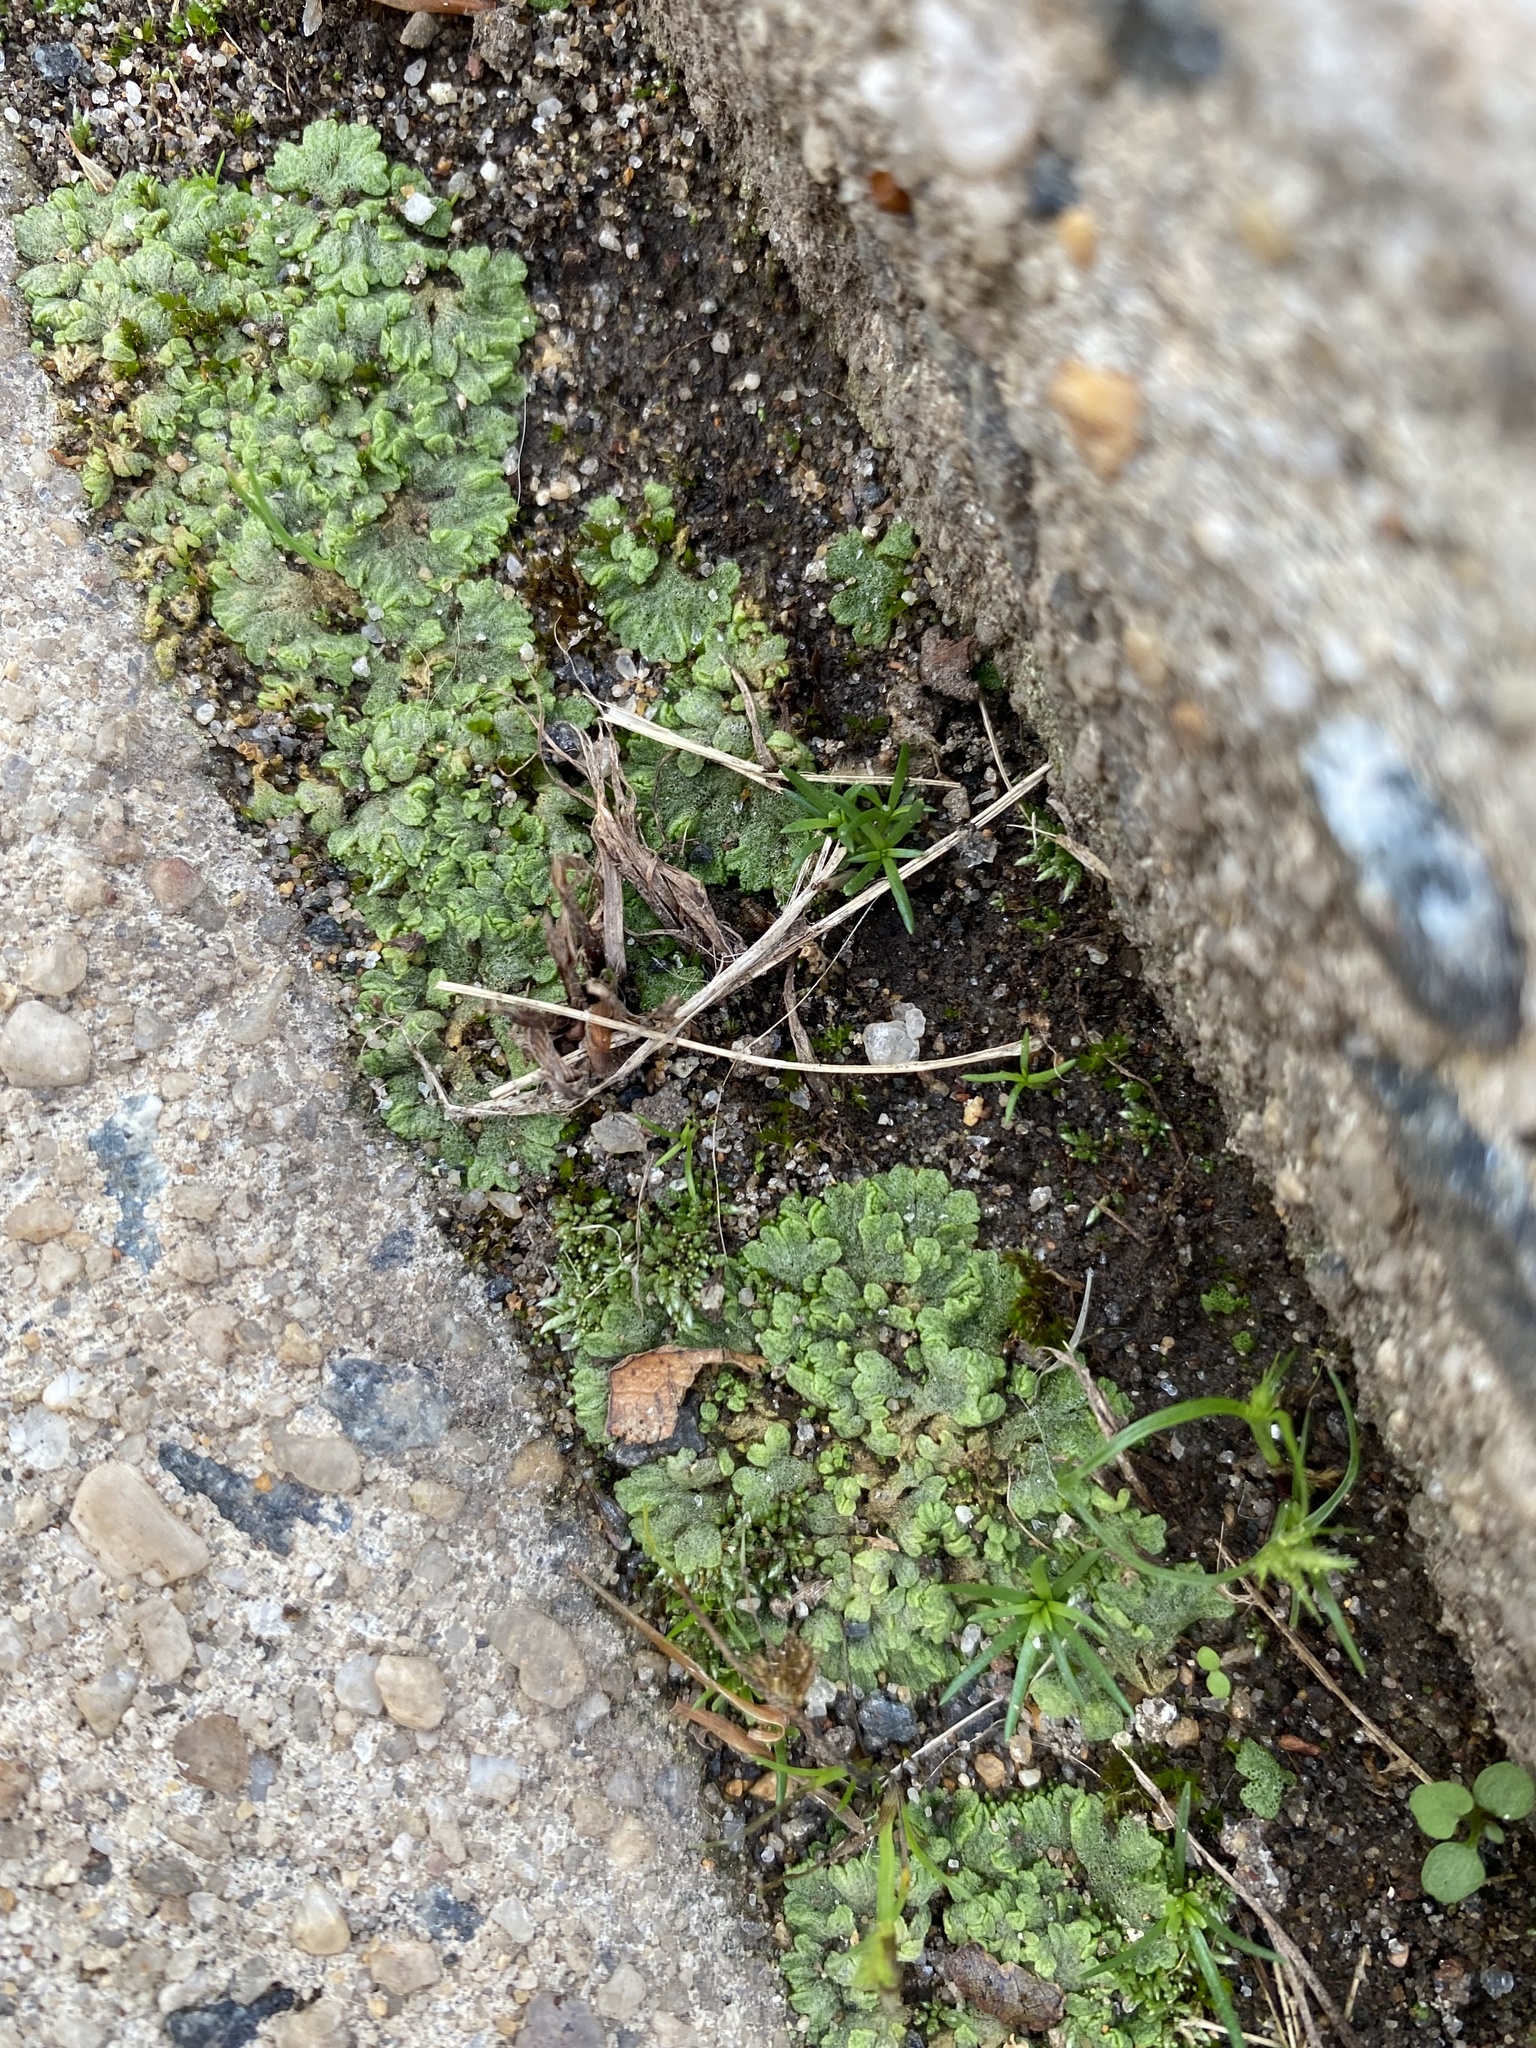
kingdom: Plantae
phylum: Marchantiophyta
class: Marchantiopsida
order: Marchantiales
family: Ricciaceae
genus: Riccia
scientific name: Riccia cavernosa
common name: Cavernous crystalwort
